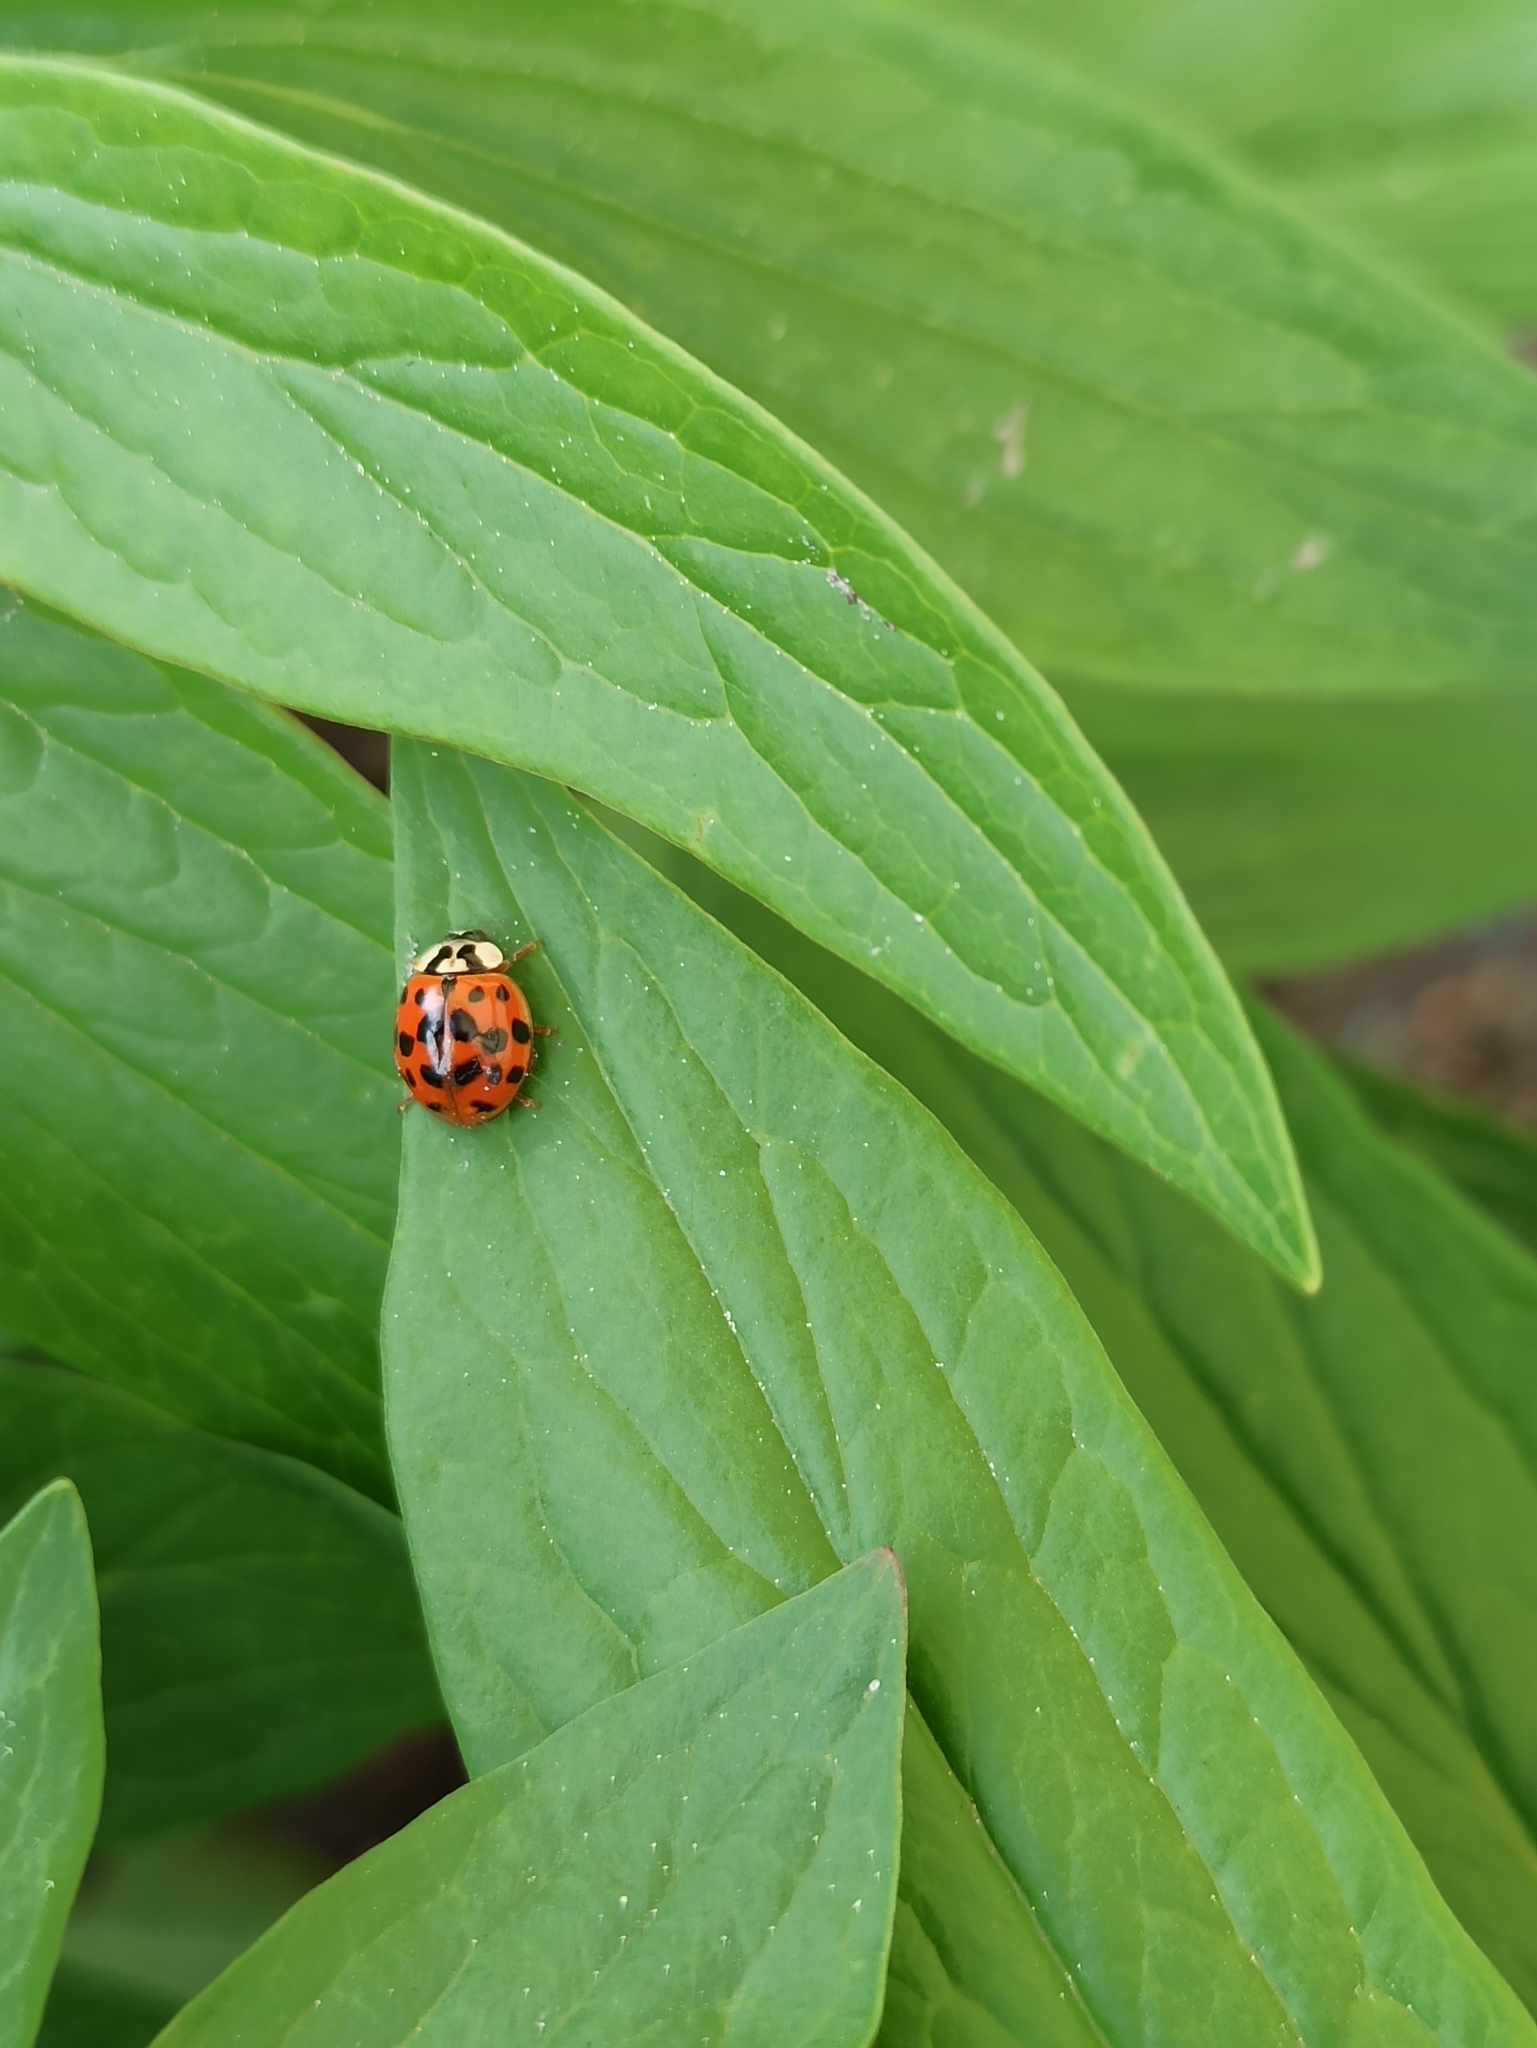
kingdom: Animalia
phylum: Arthropoda
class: Insecta
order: Coleoptera
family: Coccinellidae
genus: Harmonia
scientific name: Harmonia axyridis
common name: Harlequin ladybird
